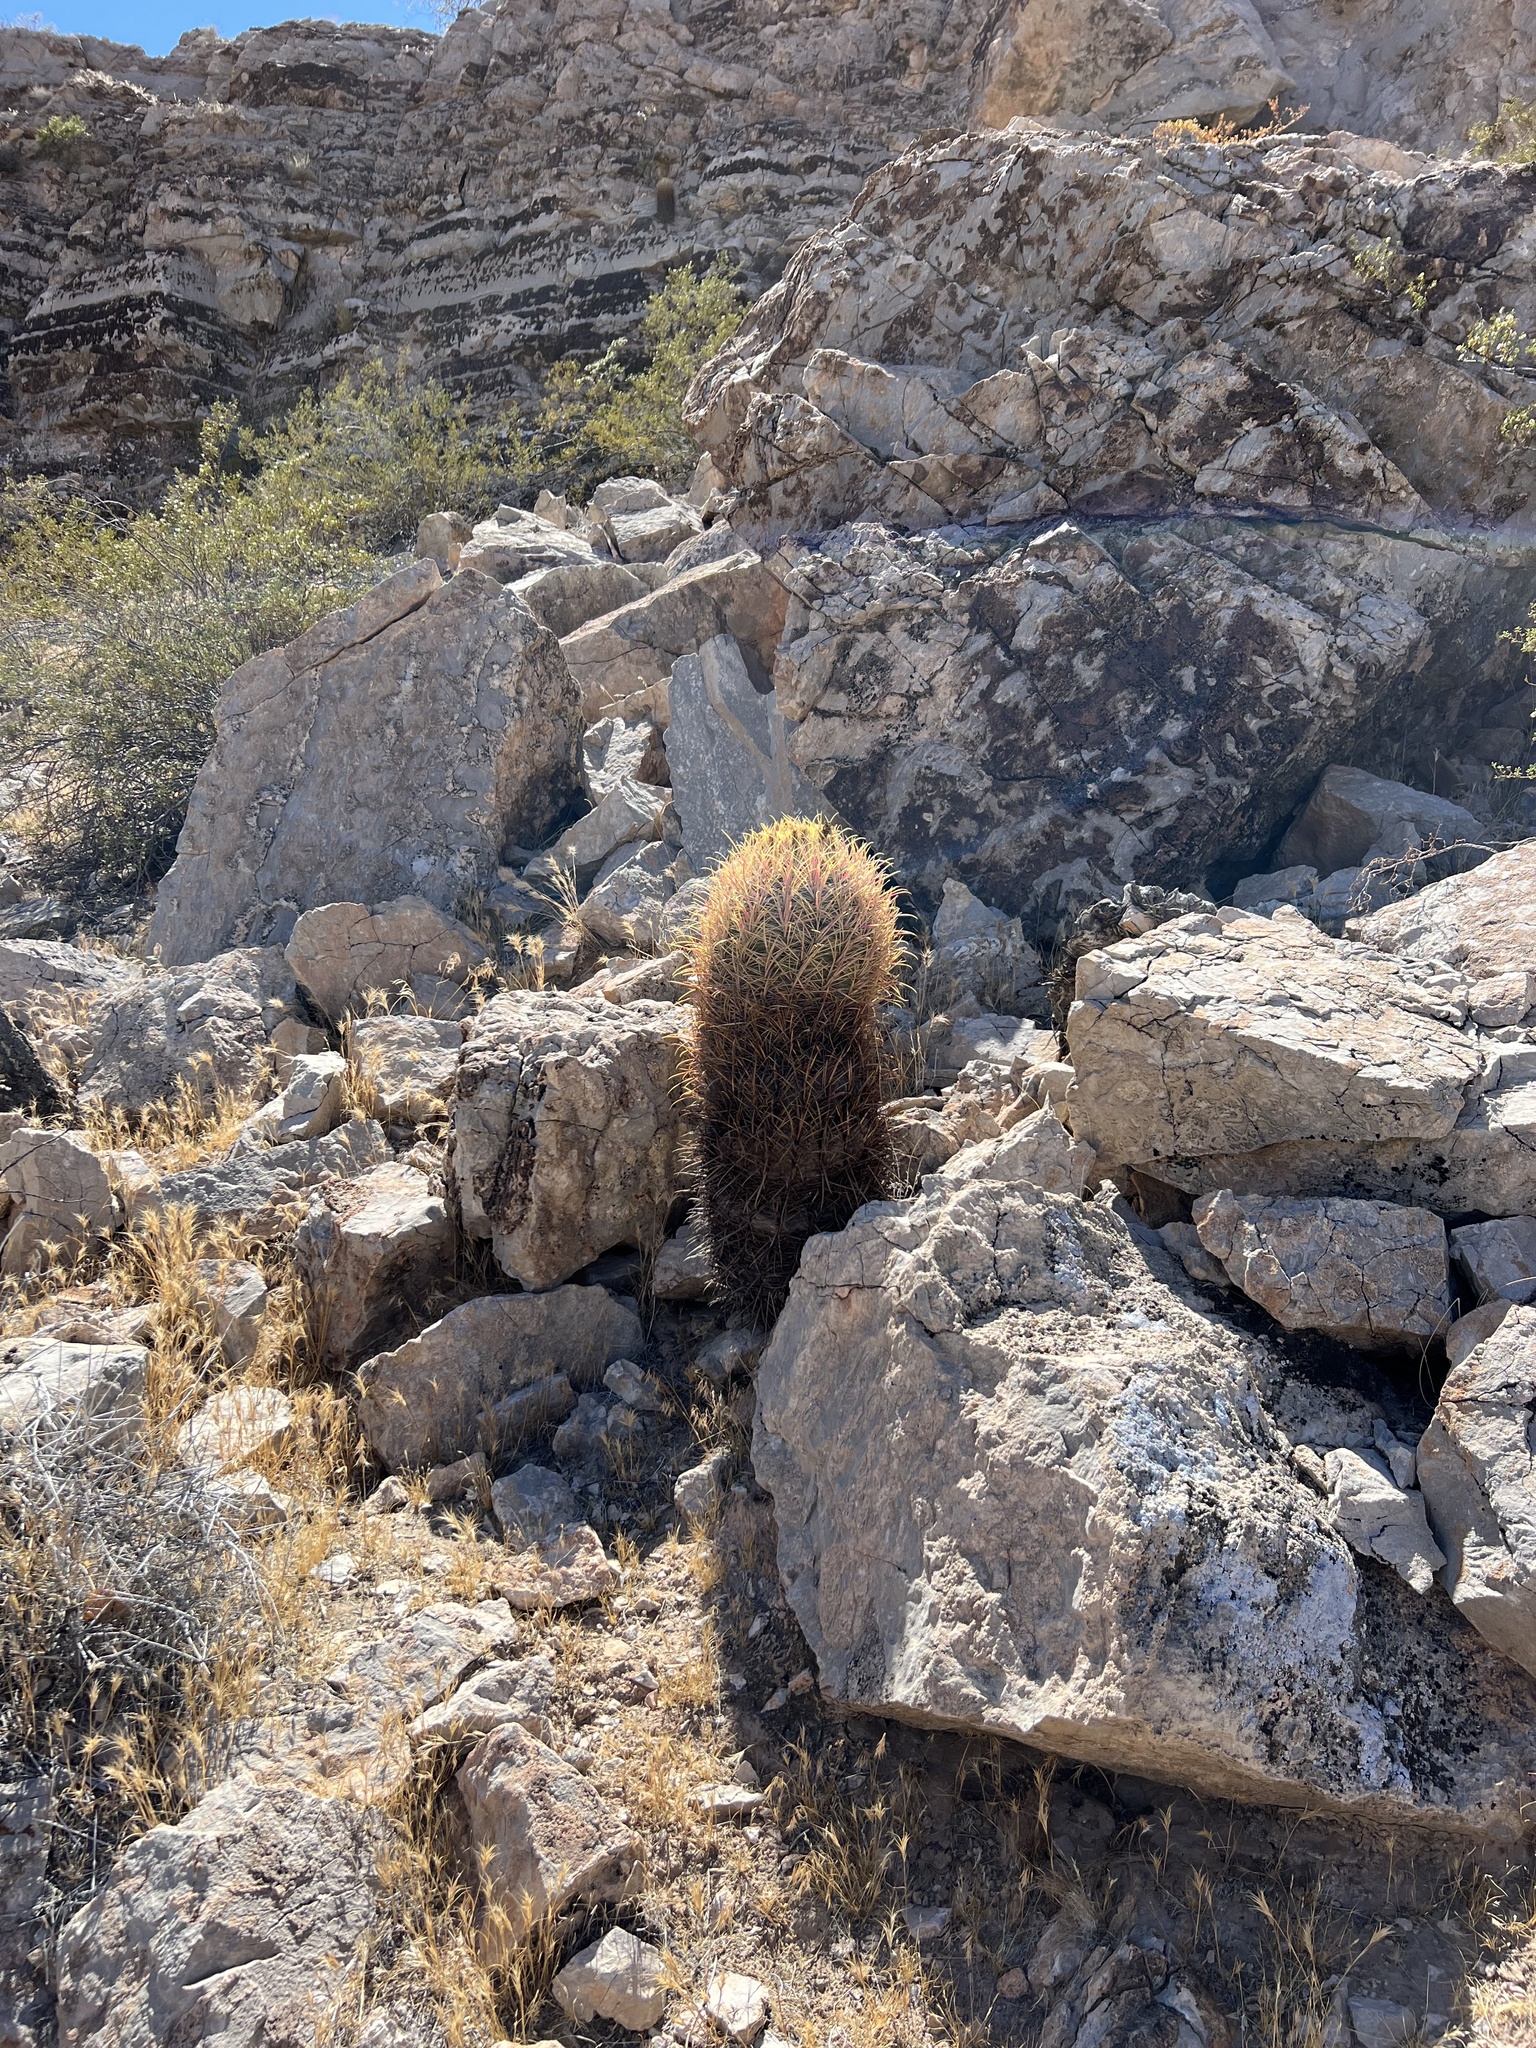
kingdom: Plantae
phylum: Tracheophyta
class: Magnoliopsida
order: Caryophyllales
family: Cactaceae
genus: Ferocactus
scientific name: Ferocactus cylindraceus
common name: California barrel cactus
